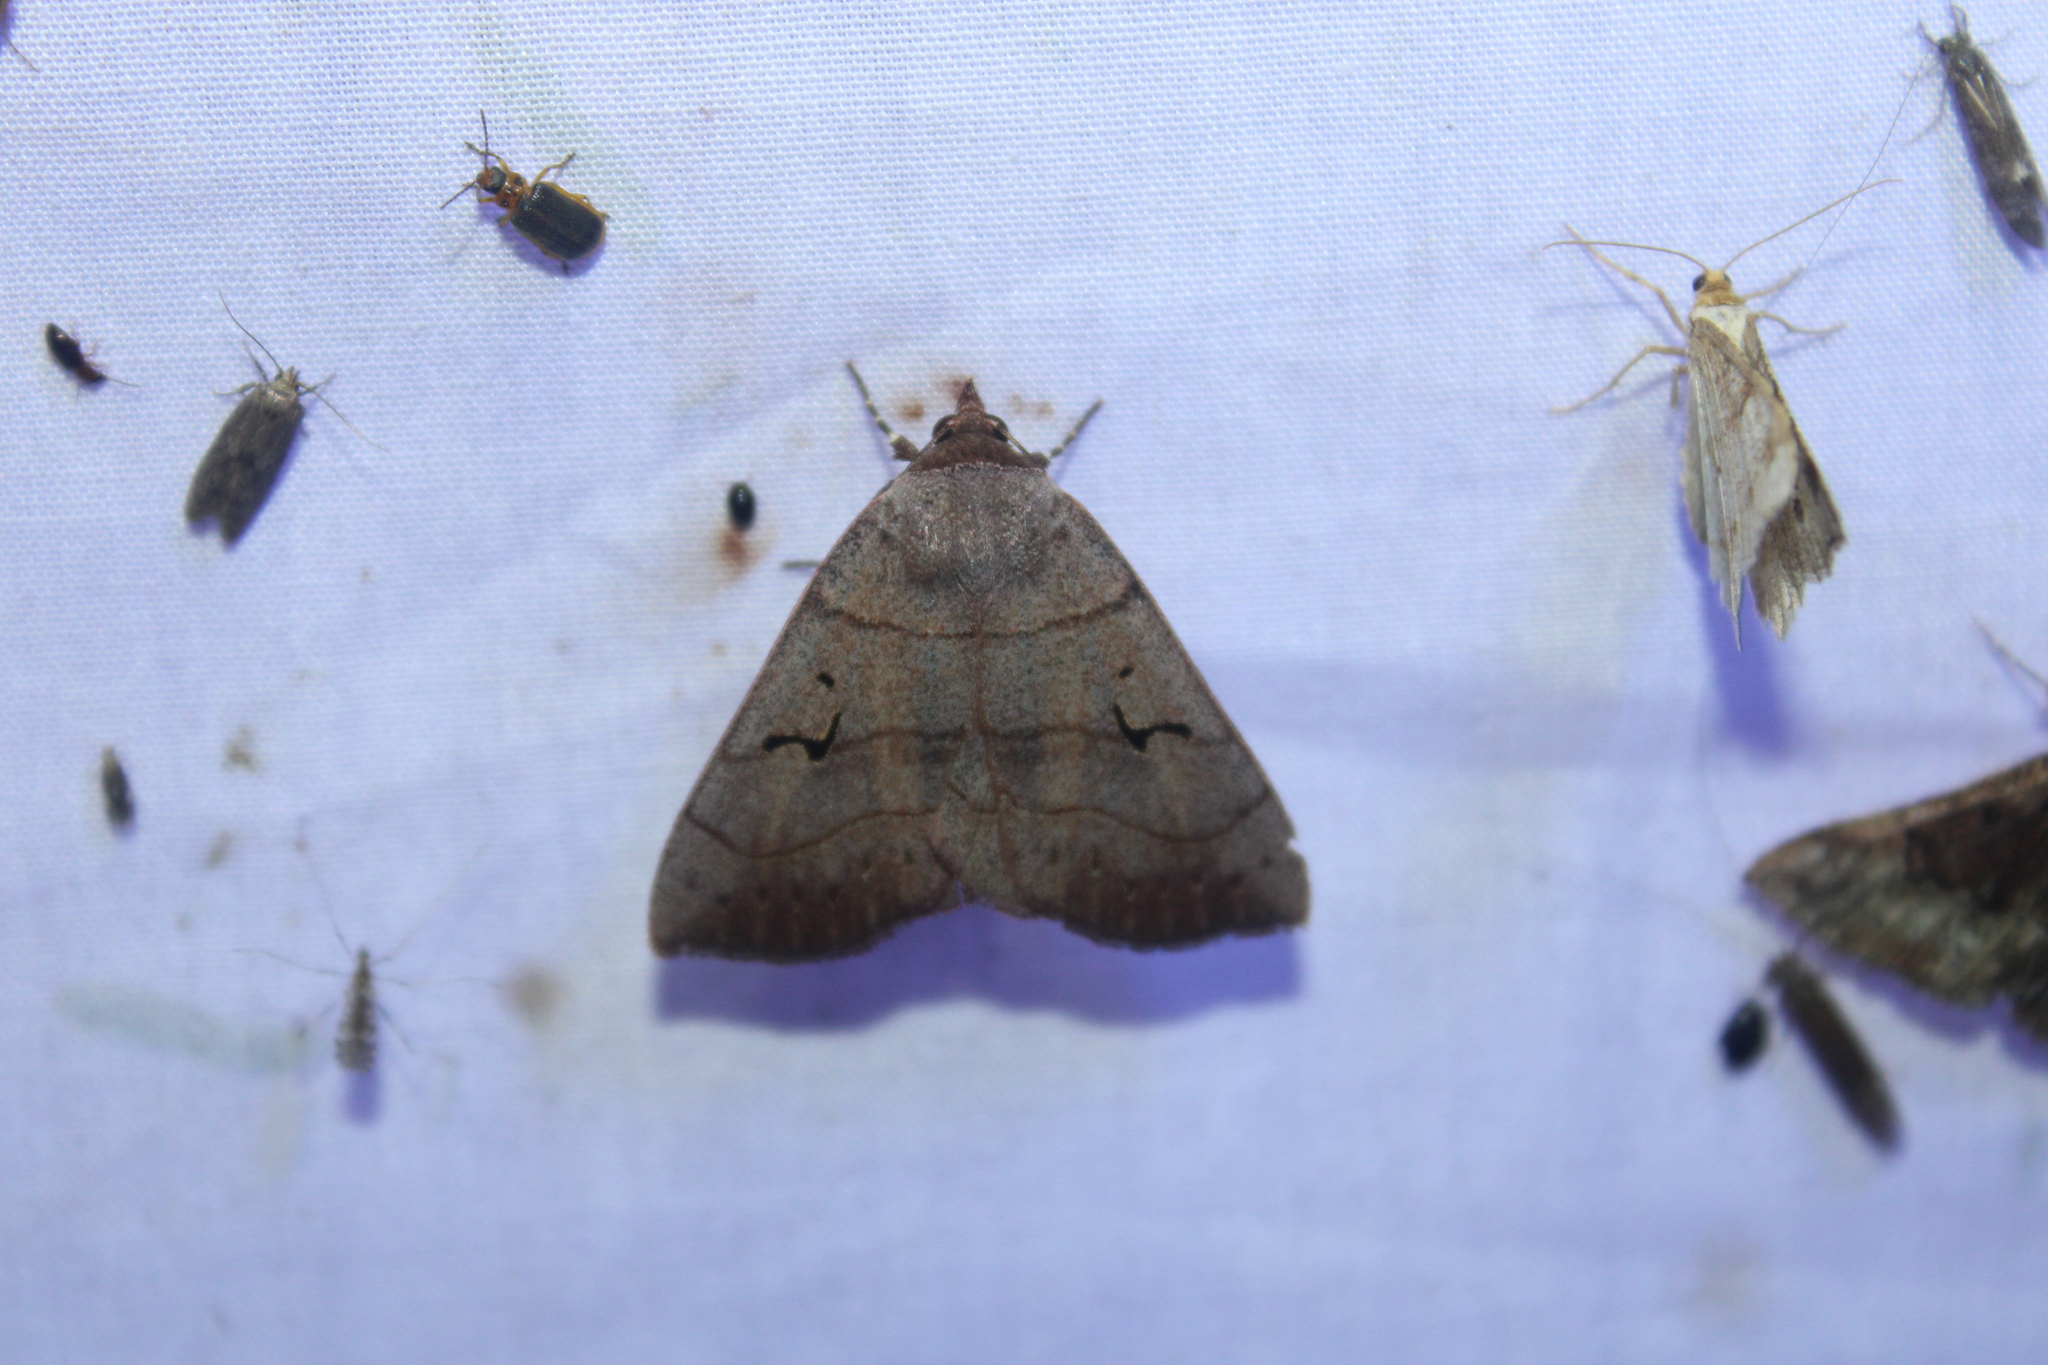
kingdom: Animalia
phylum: Arthropoda
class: Insecta
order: Lepidoptera
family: Erebidae
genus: Panopoda
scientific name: Panopoda carneicosta
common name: Brown panopoda moth
